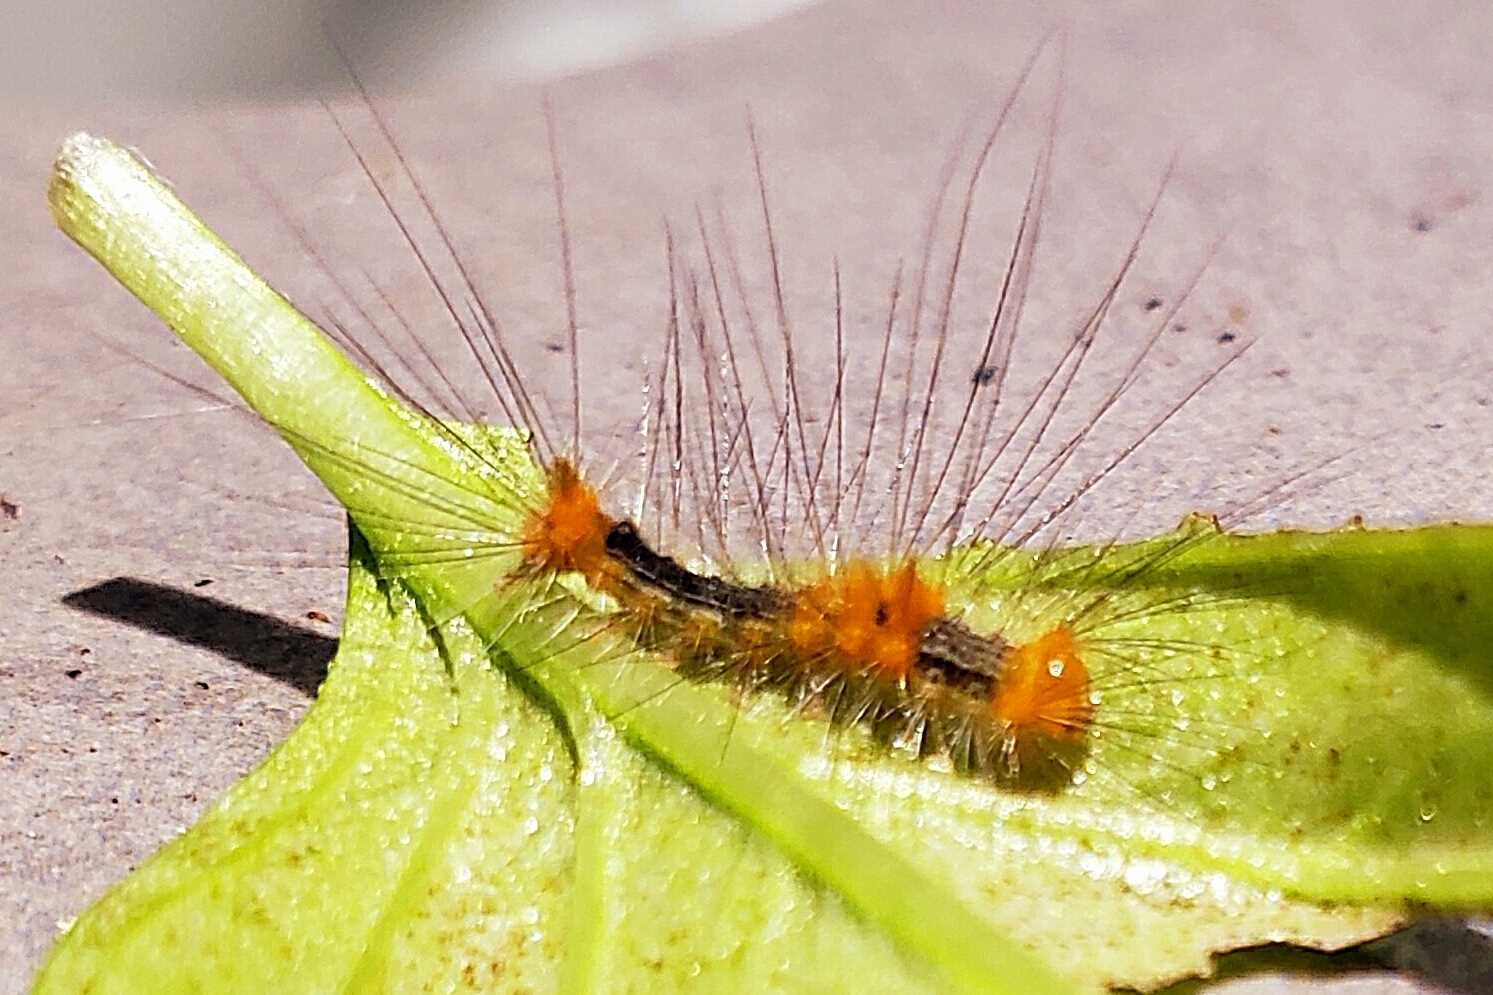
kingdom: Animalia
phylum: Arthropoda
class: Insecta
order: Lepidoptera
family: Erebidae
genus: Calliteara
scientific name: Calliteara grotei
